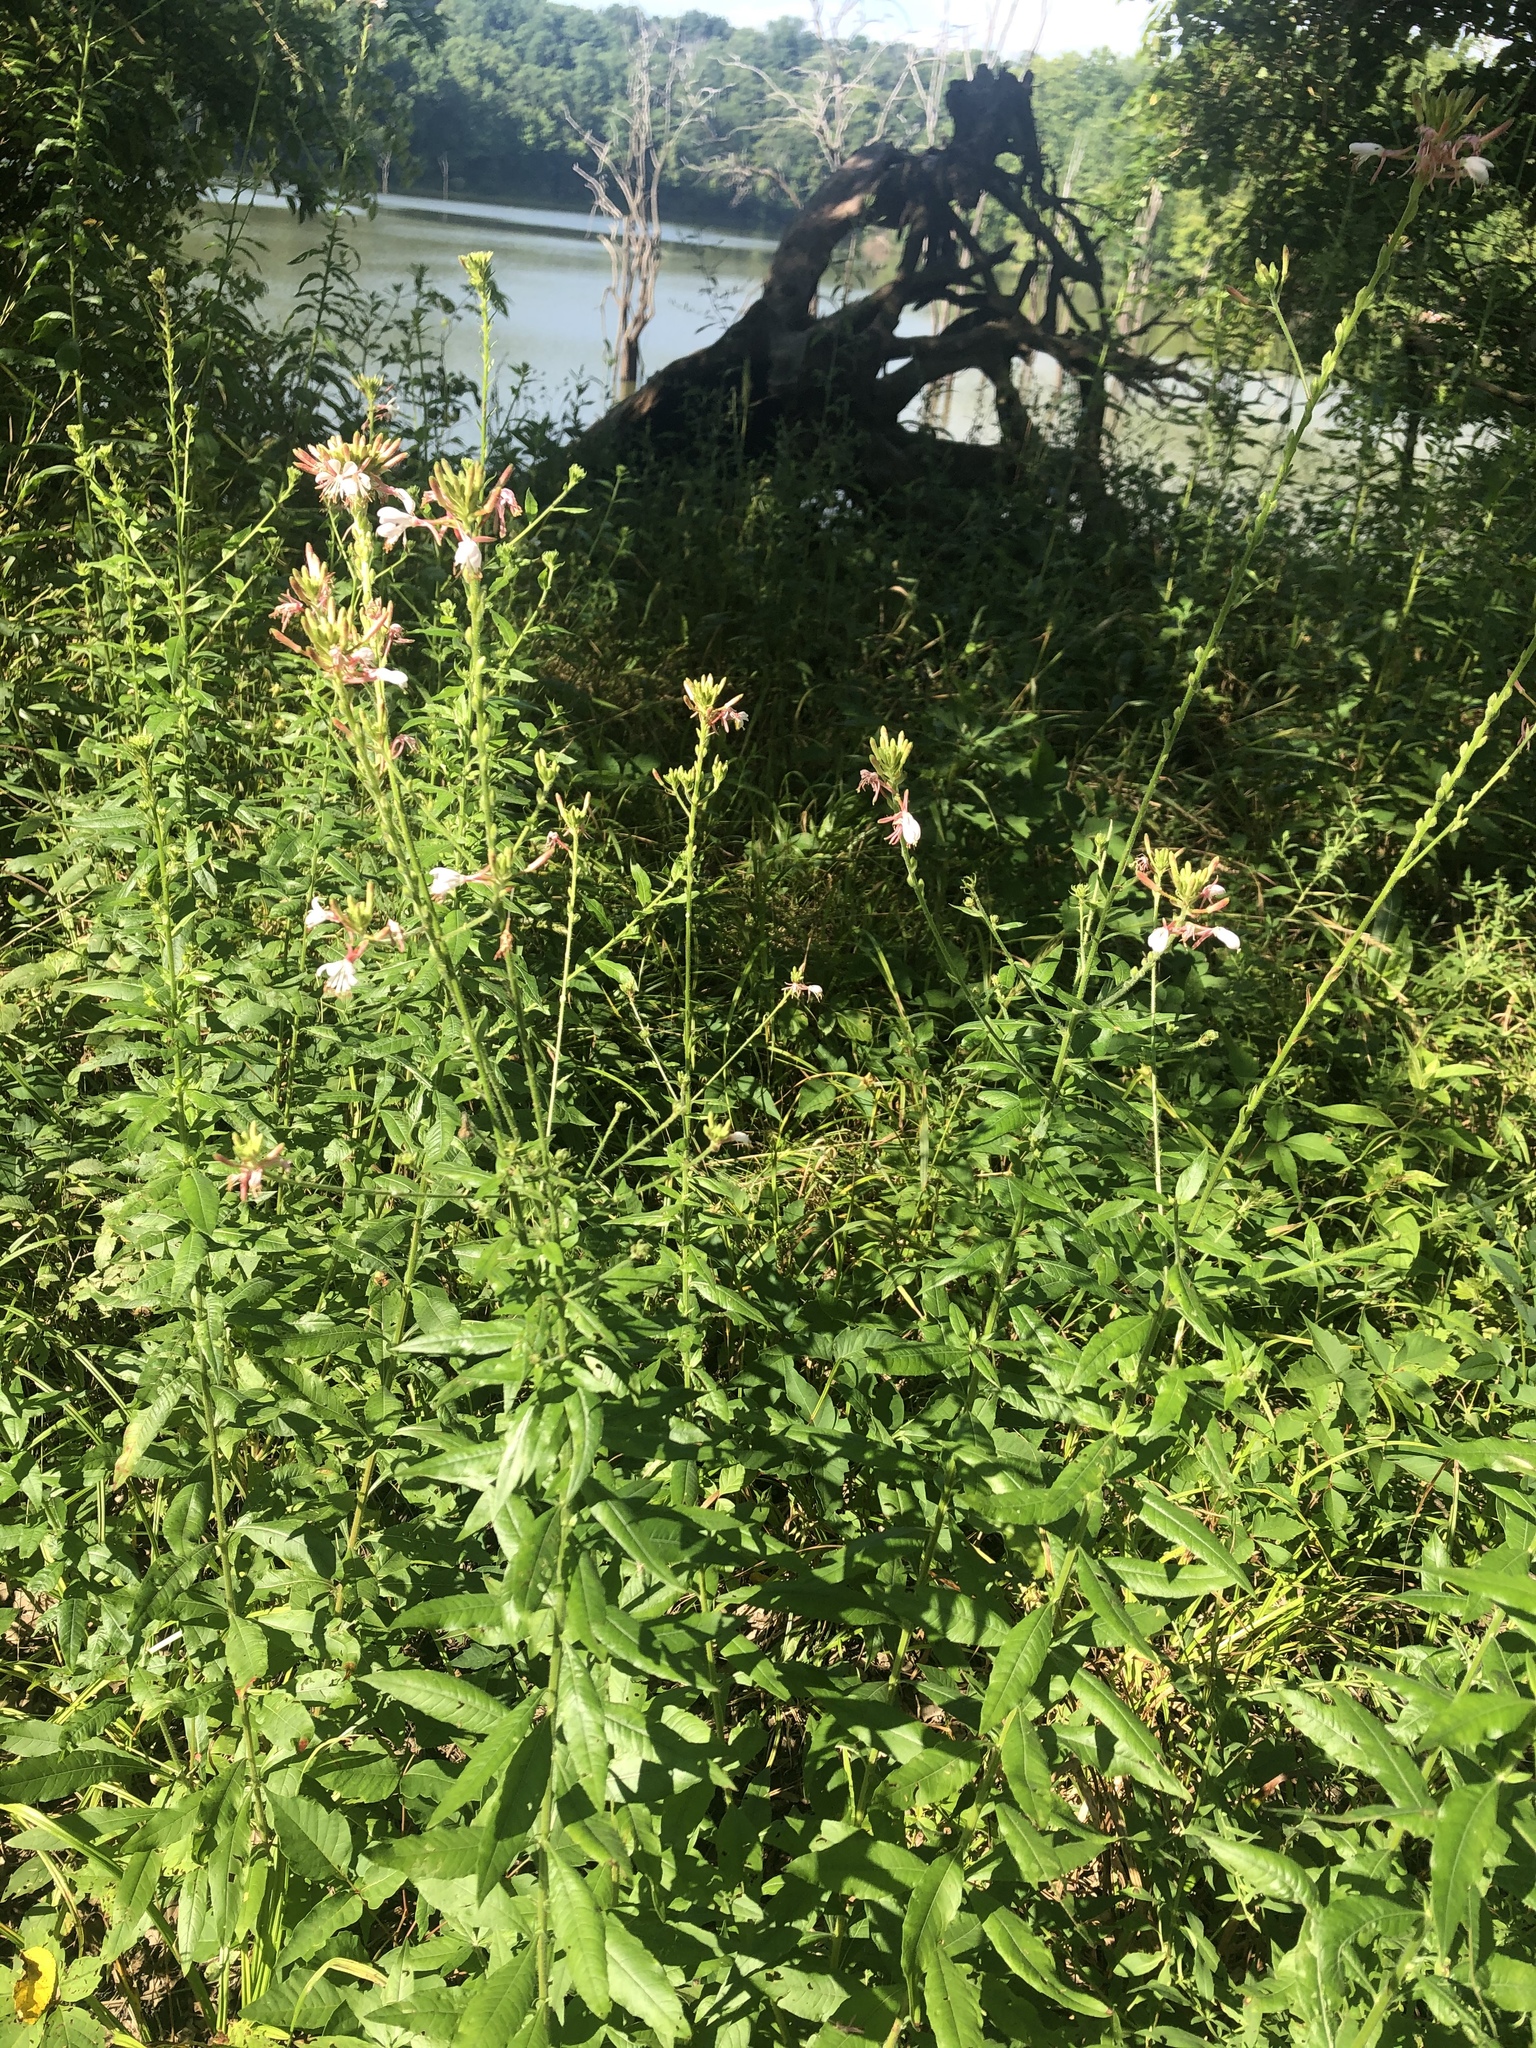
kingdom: Plantae
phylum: Tracheophyta
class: Magnoliopsida
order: Myrtales
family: Onagraceae
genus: Oenothera
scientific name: Oenothera gaura
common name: Biennial beeblossom
